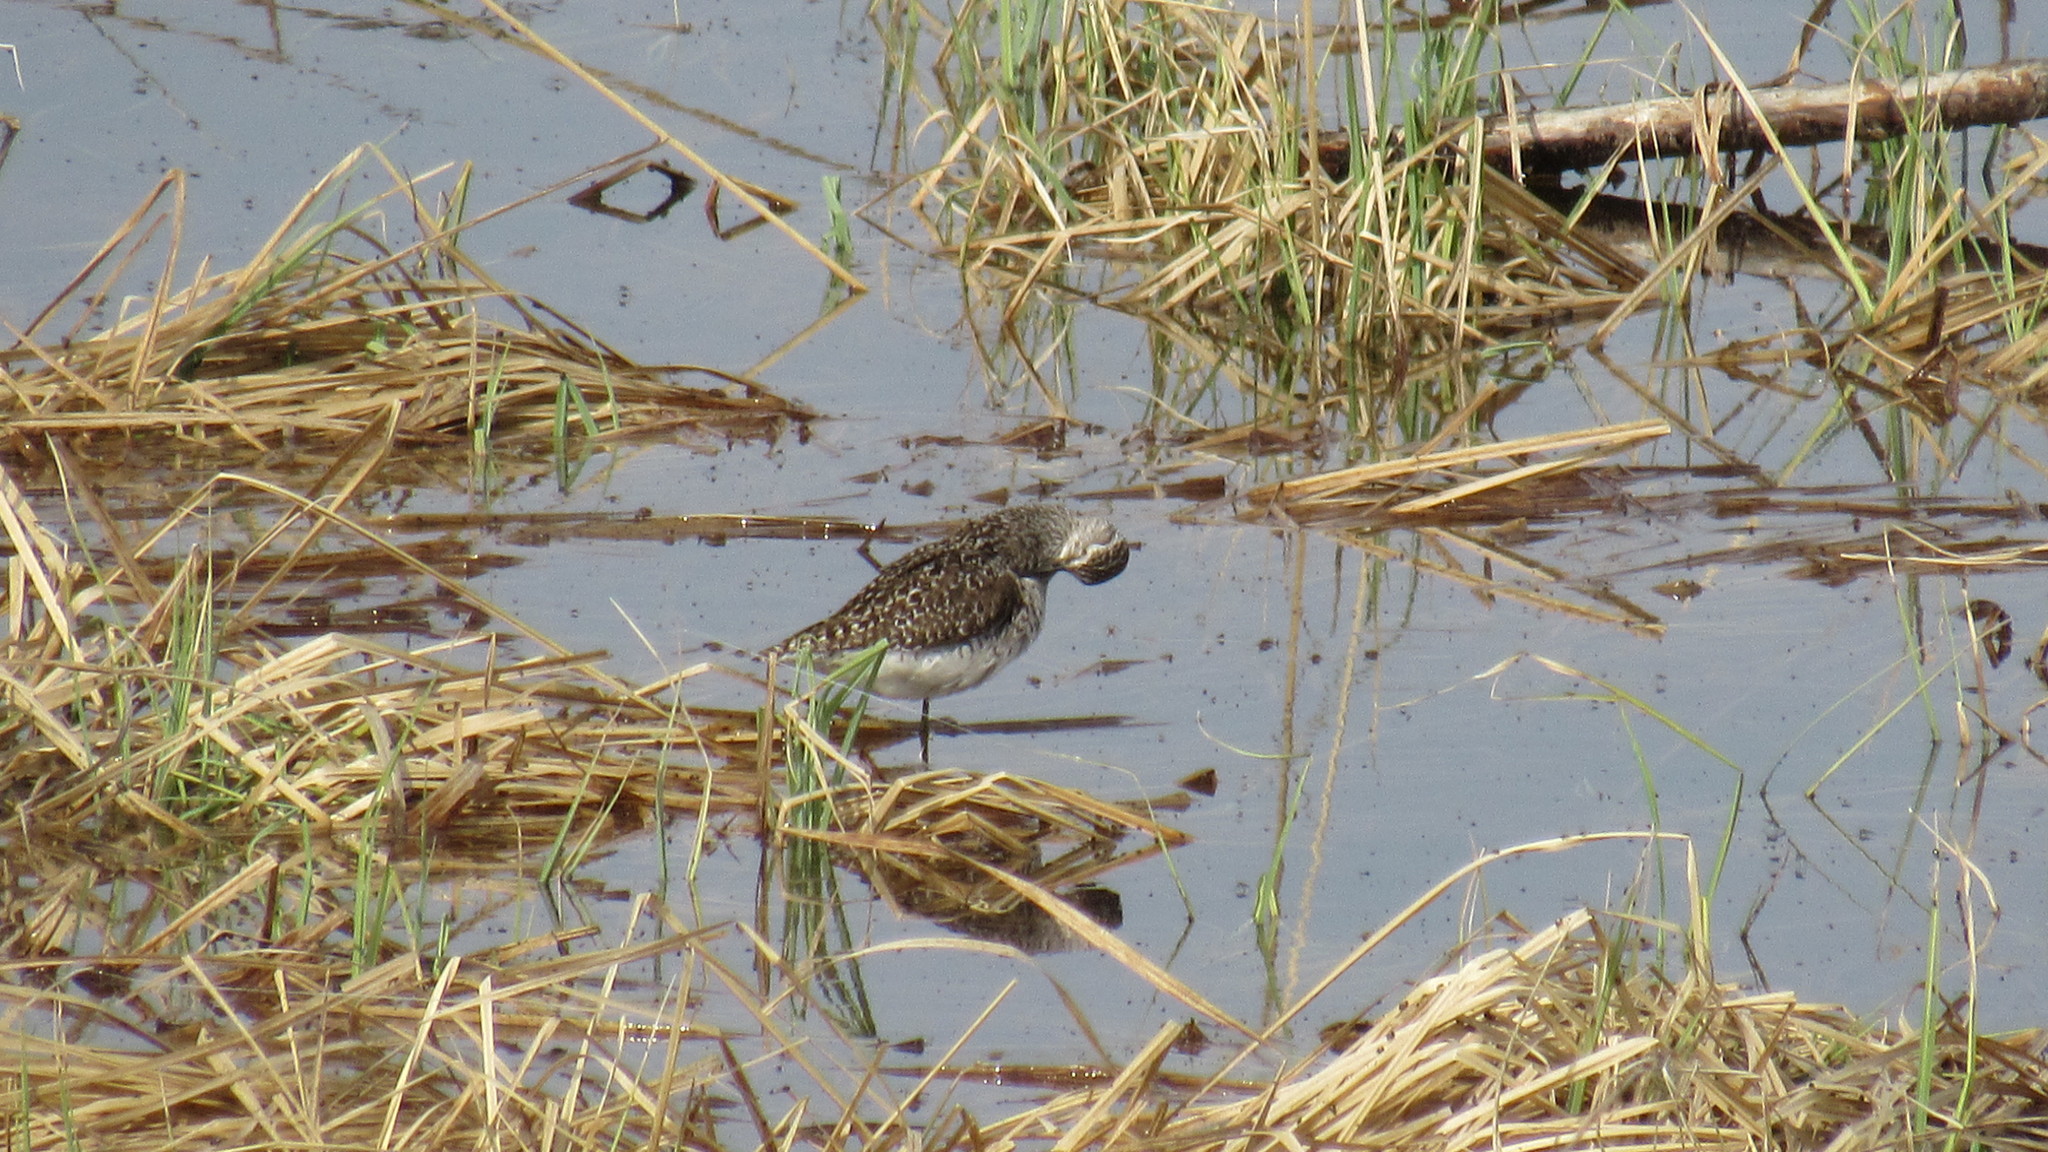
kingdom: Animalia
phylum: Chordata
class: Aves
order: Charadriiformes
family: Scolopacidae
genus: Tringa
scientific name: Tringa glareola
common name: Wood sandpiper
